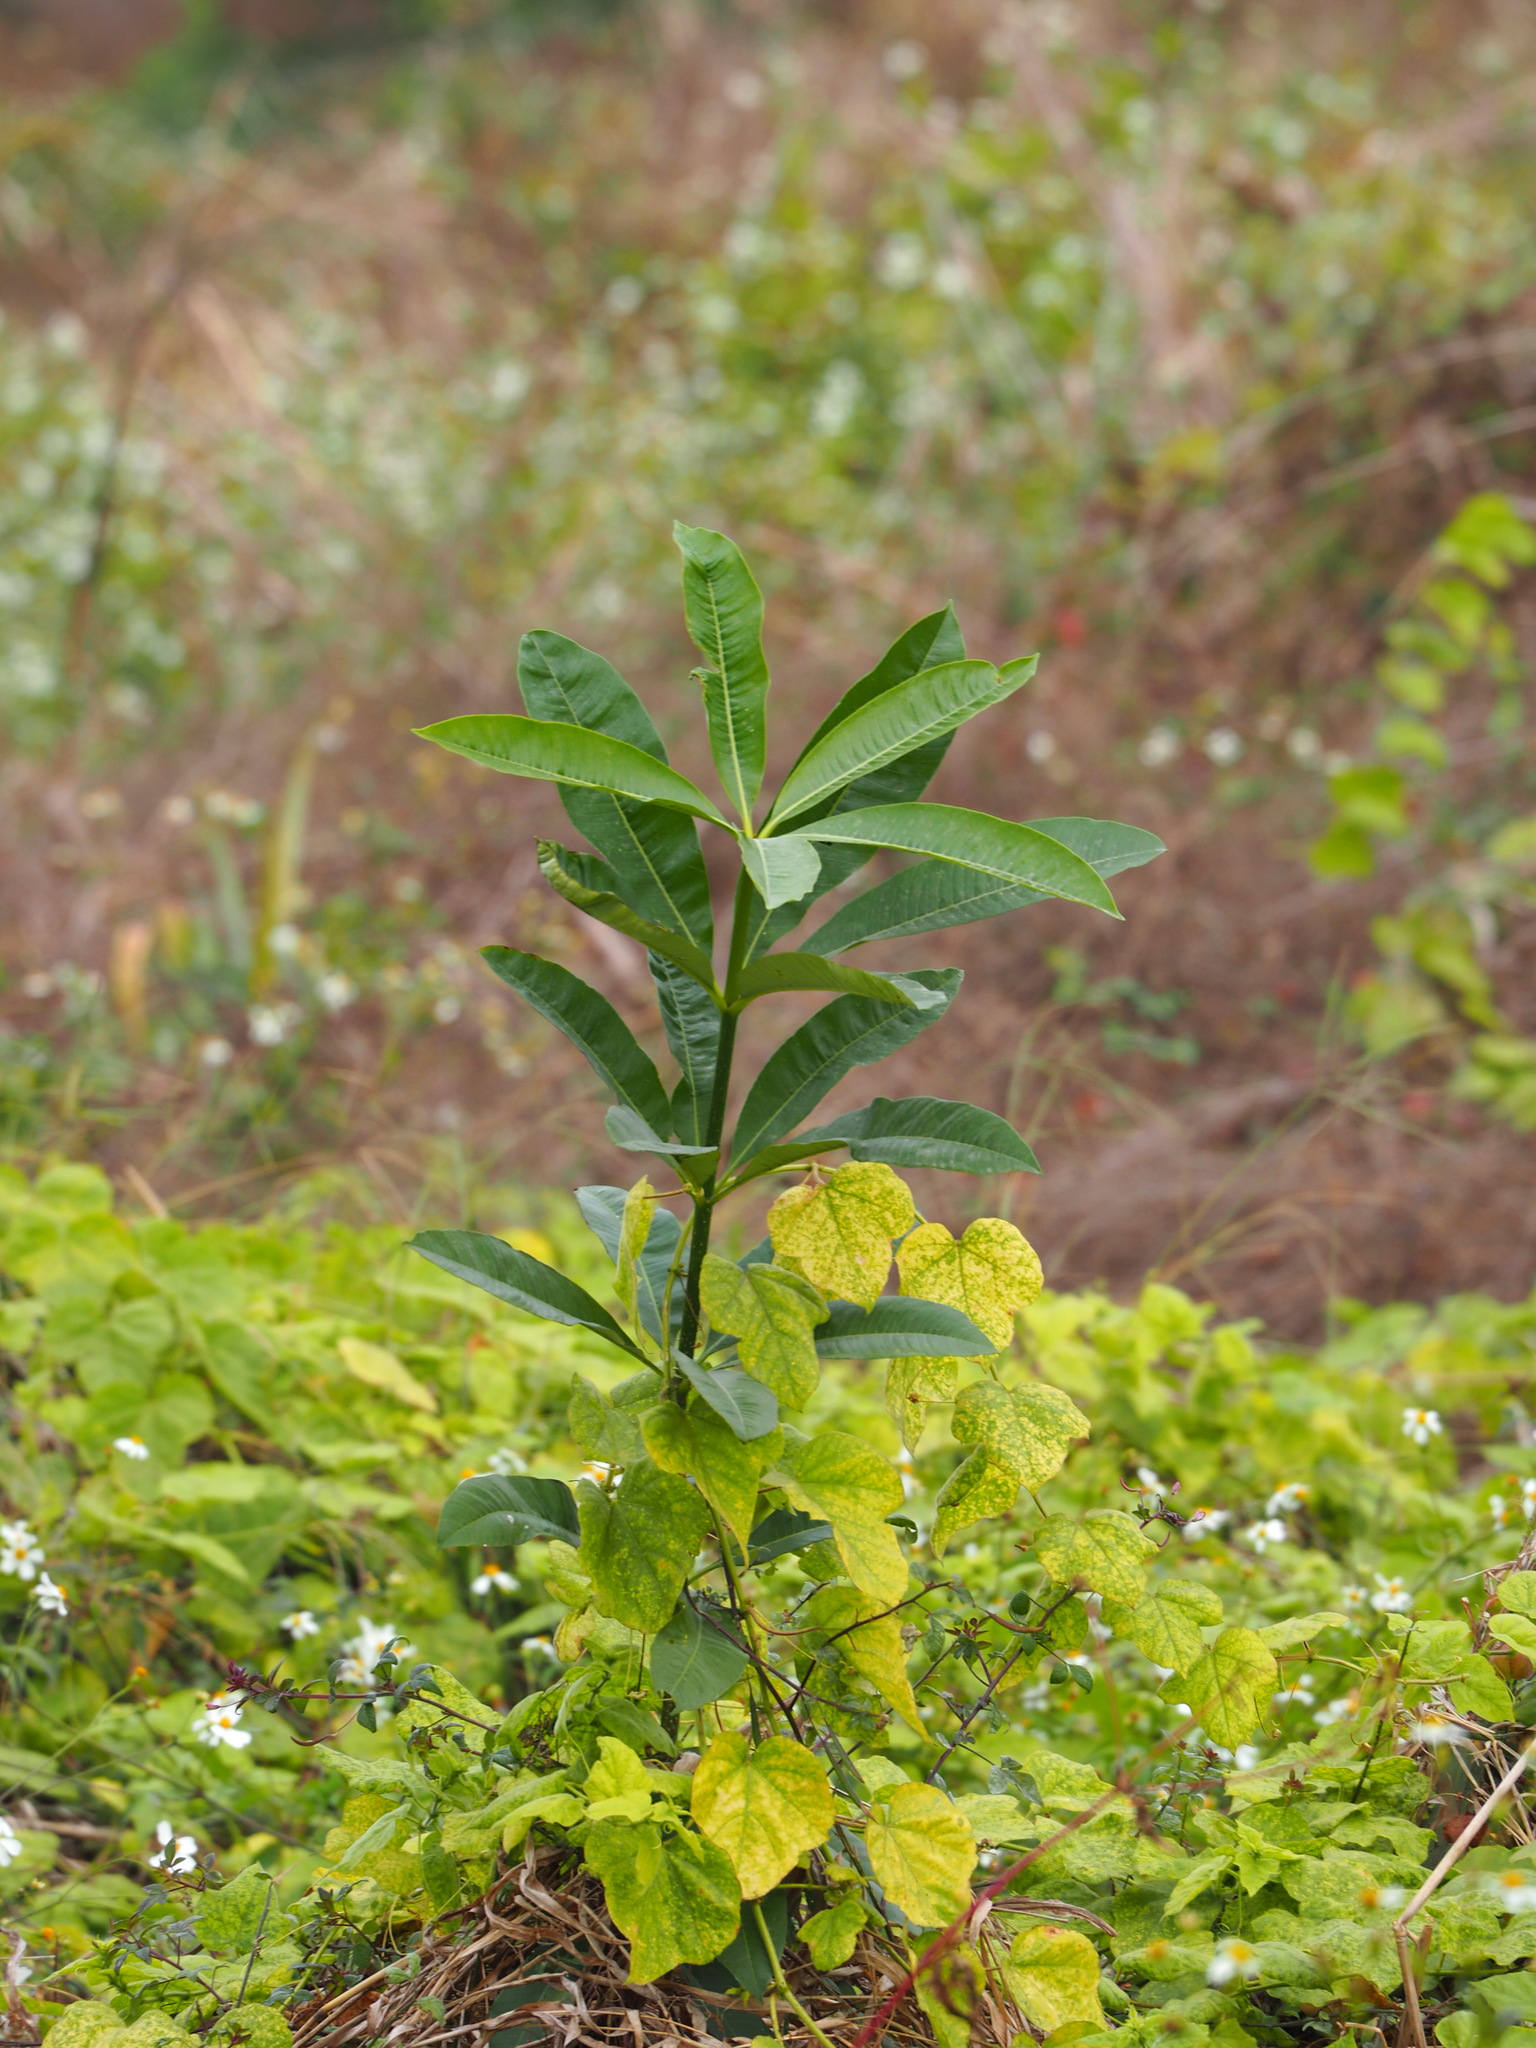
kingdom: Plantae
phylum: Tracheophyta
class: Magnoliopsida
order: Gentianales
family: Apocynaceae
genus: Alstonia
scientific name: Alstonia scholaris
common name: White cheesewood
